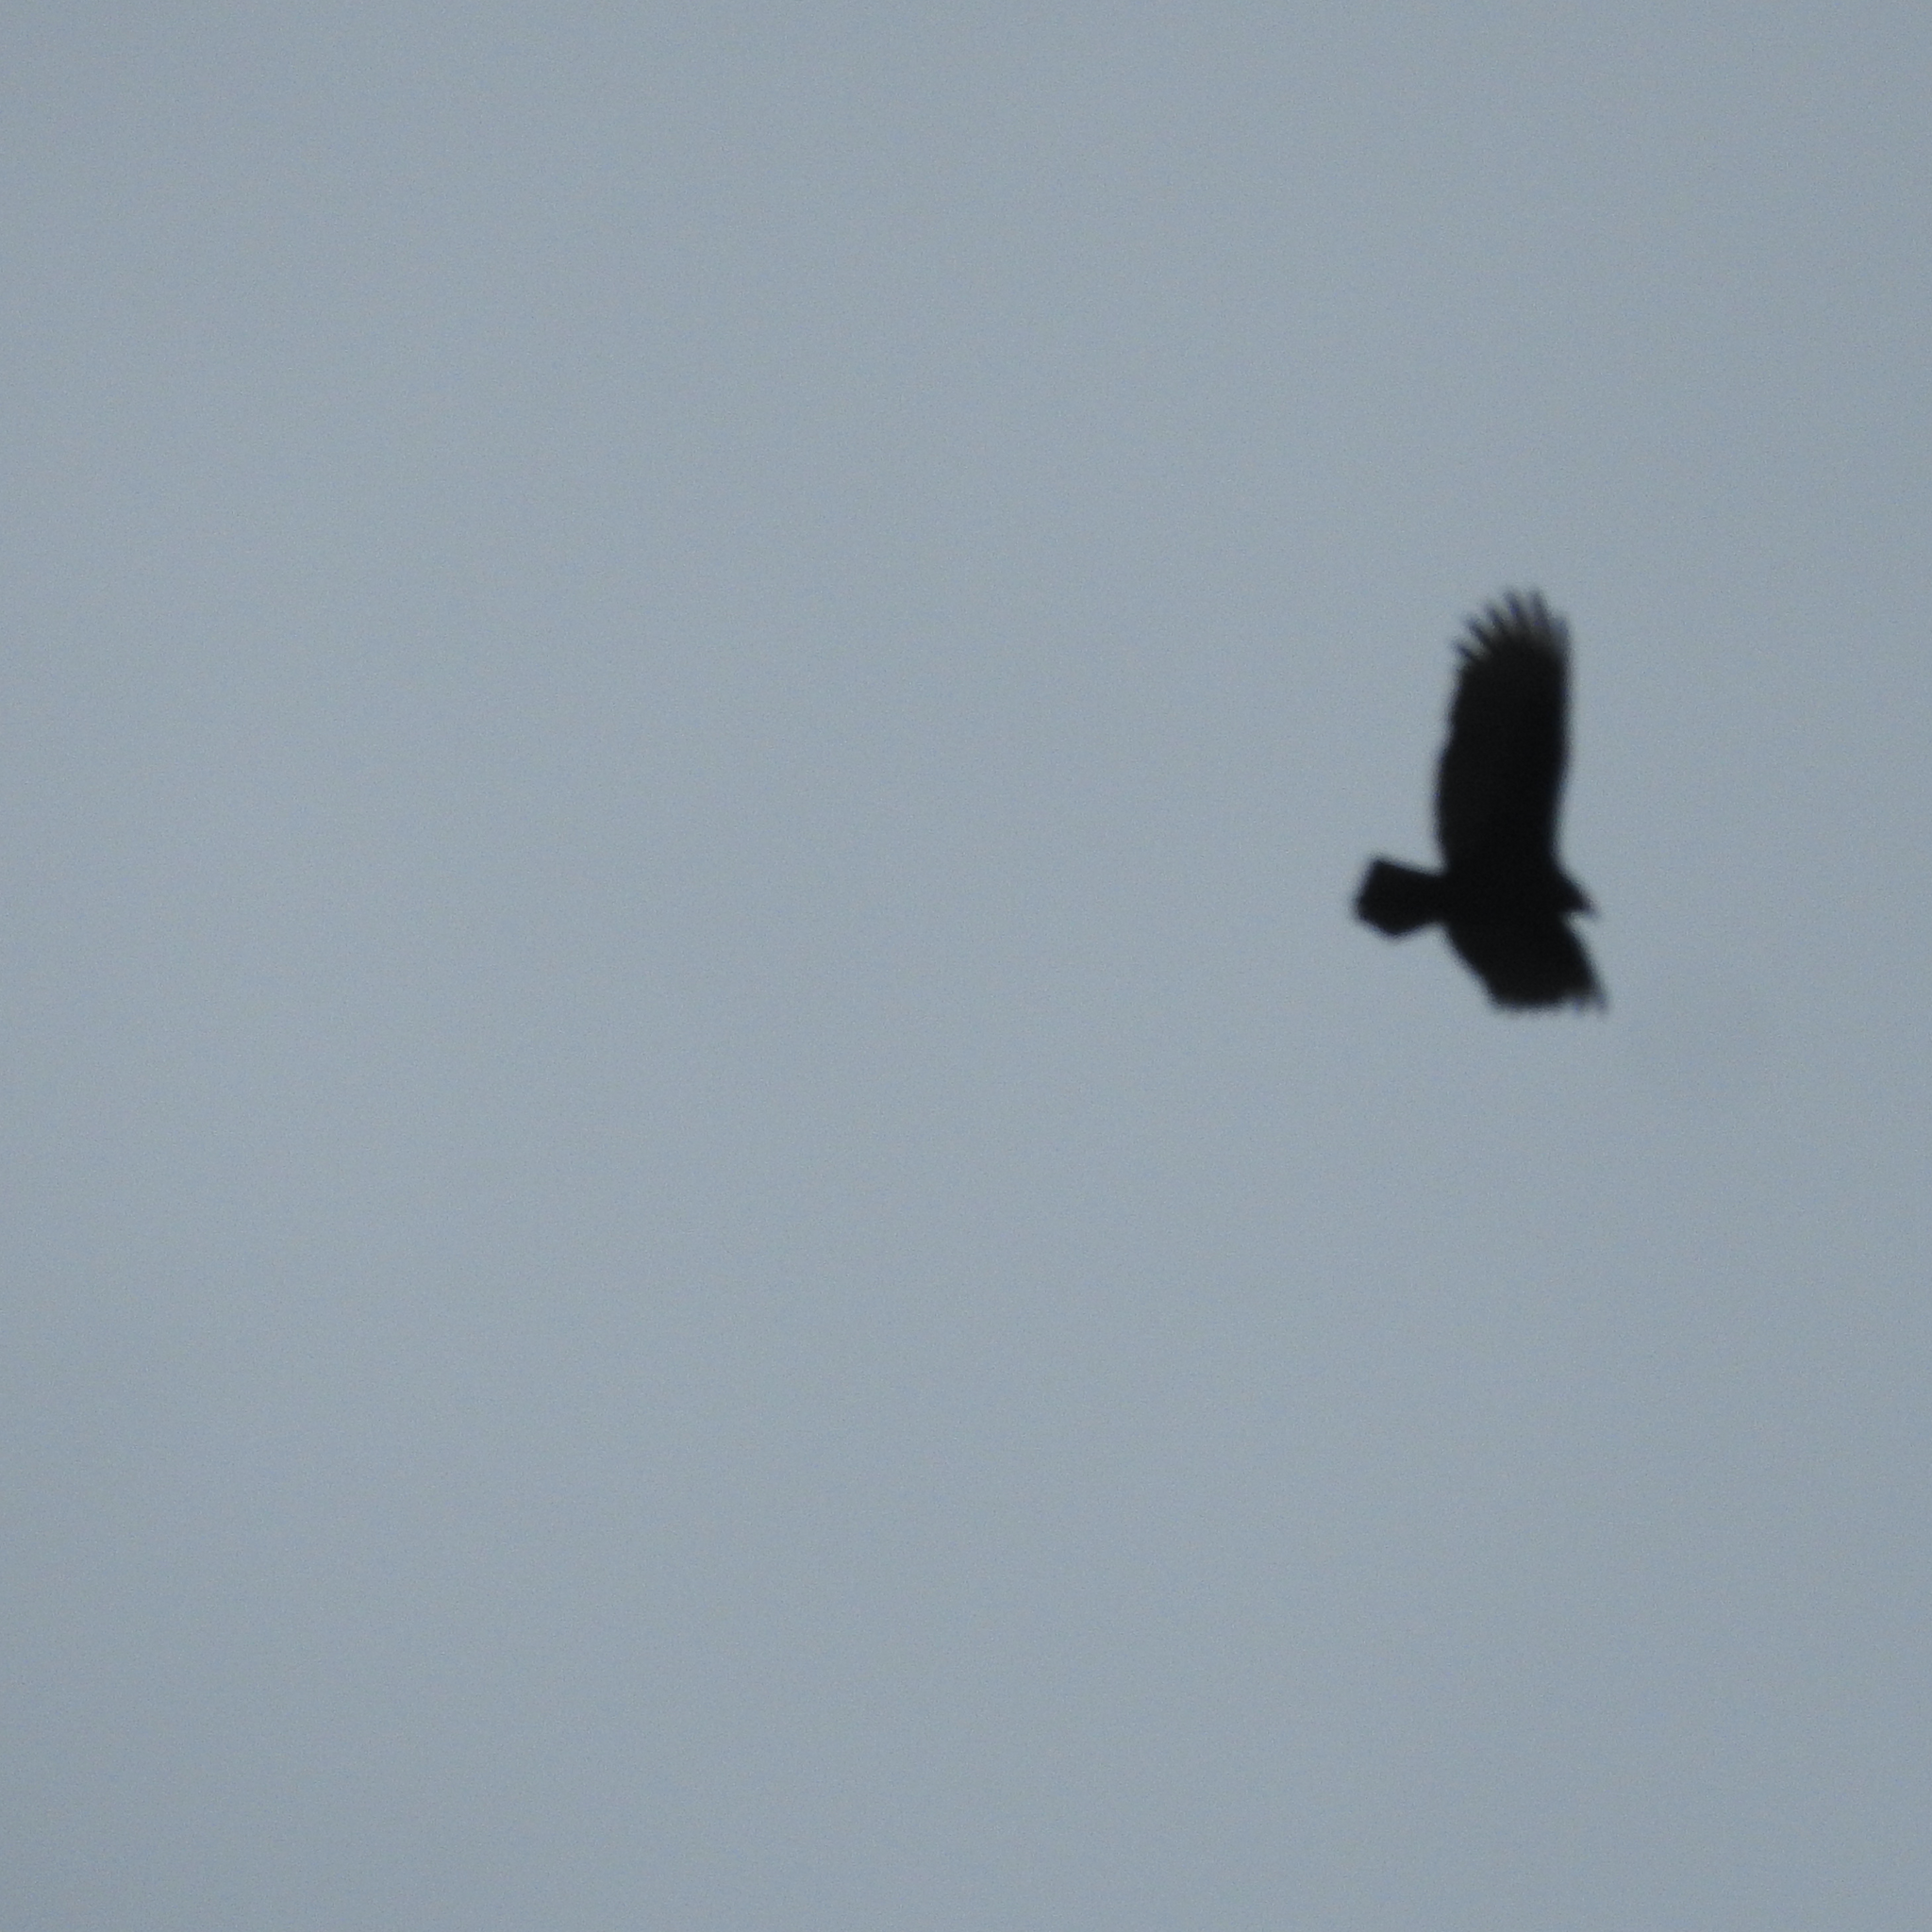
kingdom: Animalia
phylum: Chordata
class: Aves
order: Accipitriformes
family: Cathartidae
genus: Cathartes
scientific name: Cathartes aura
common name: Turkey vulture
